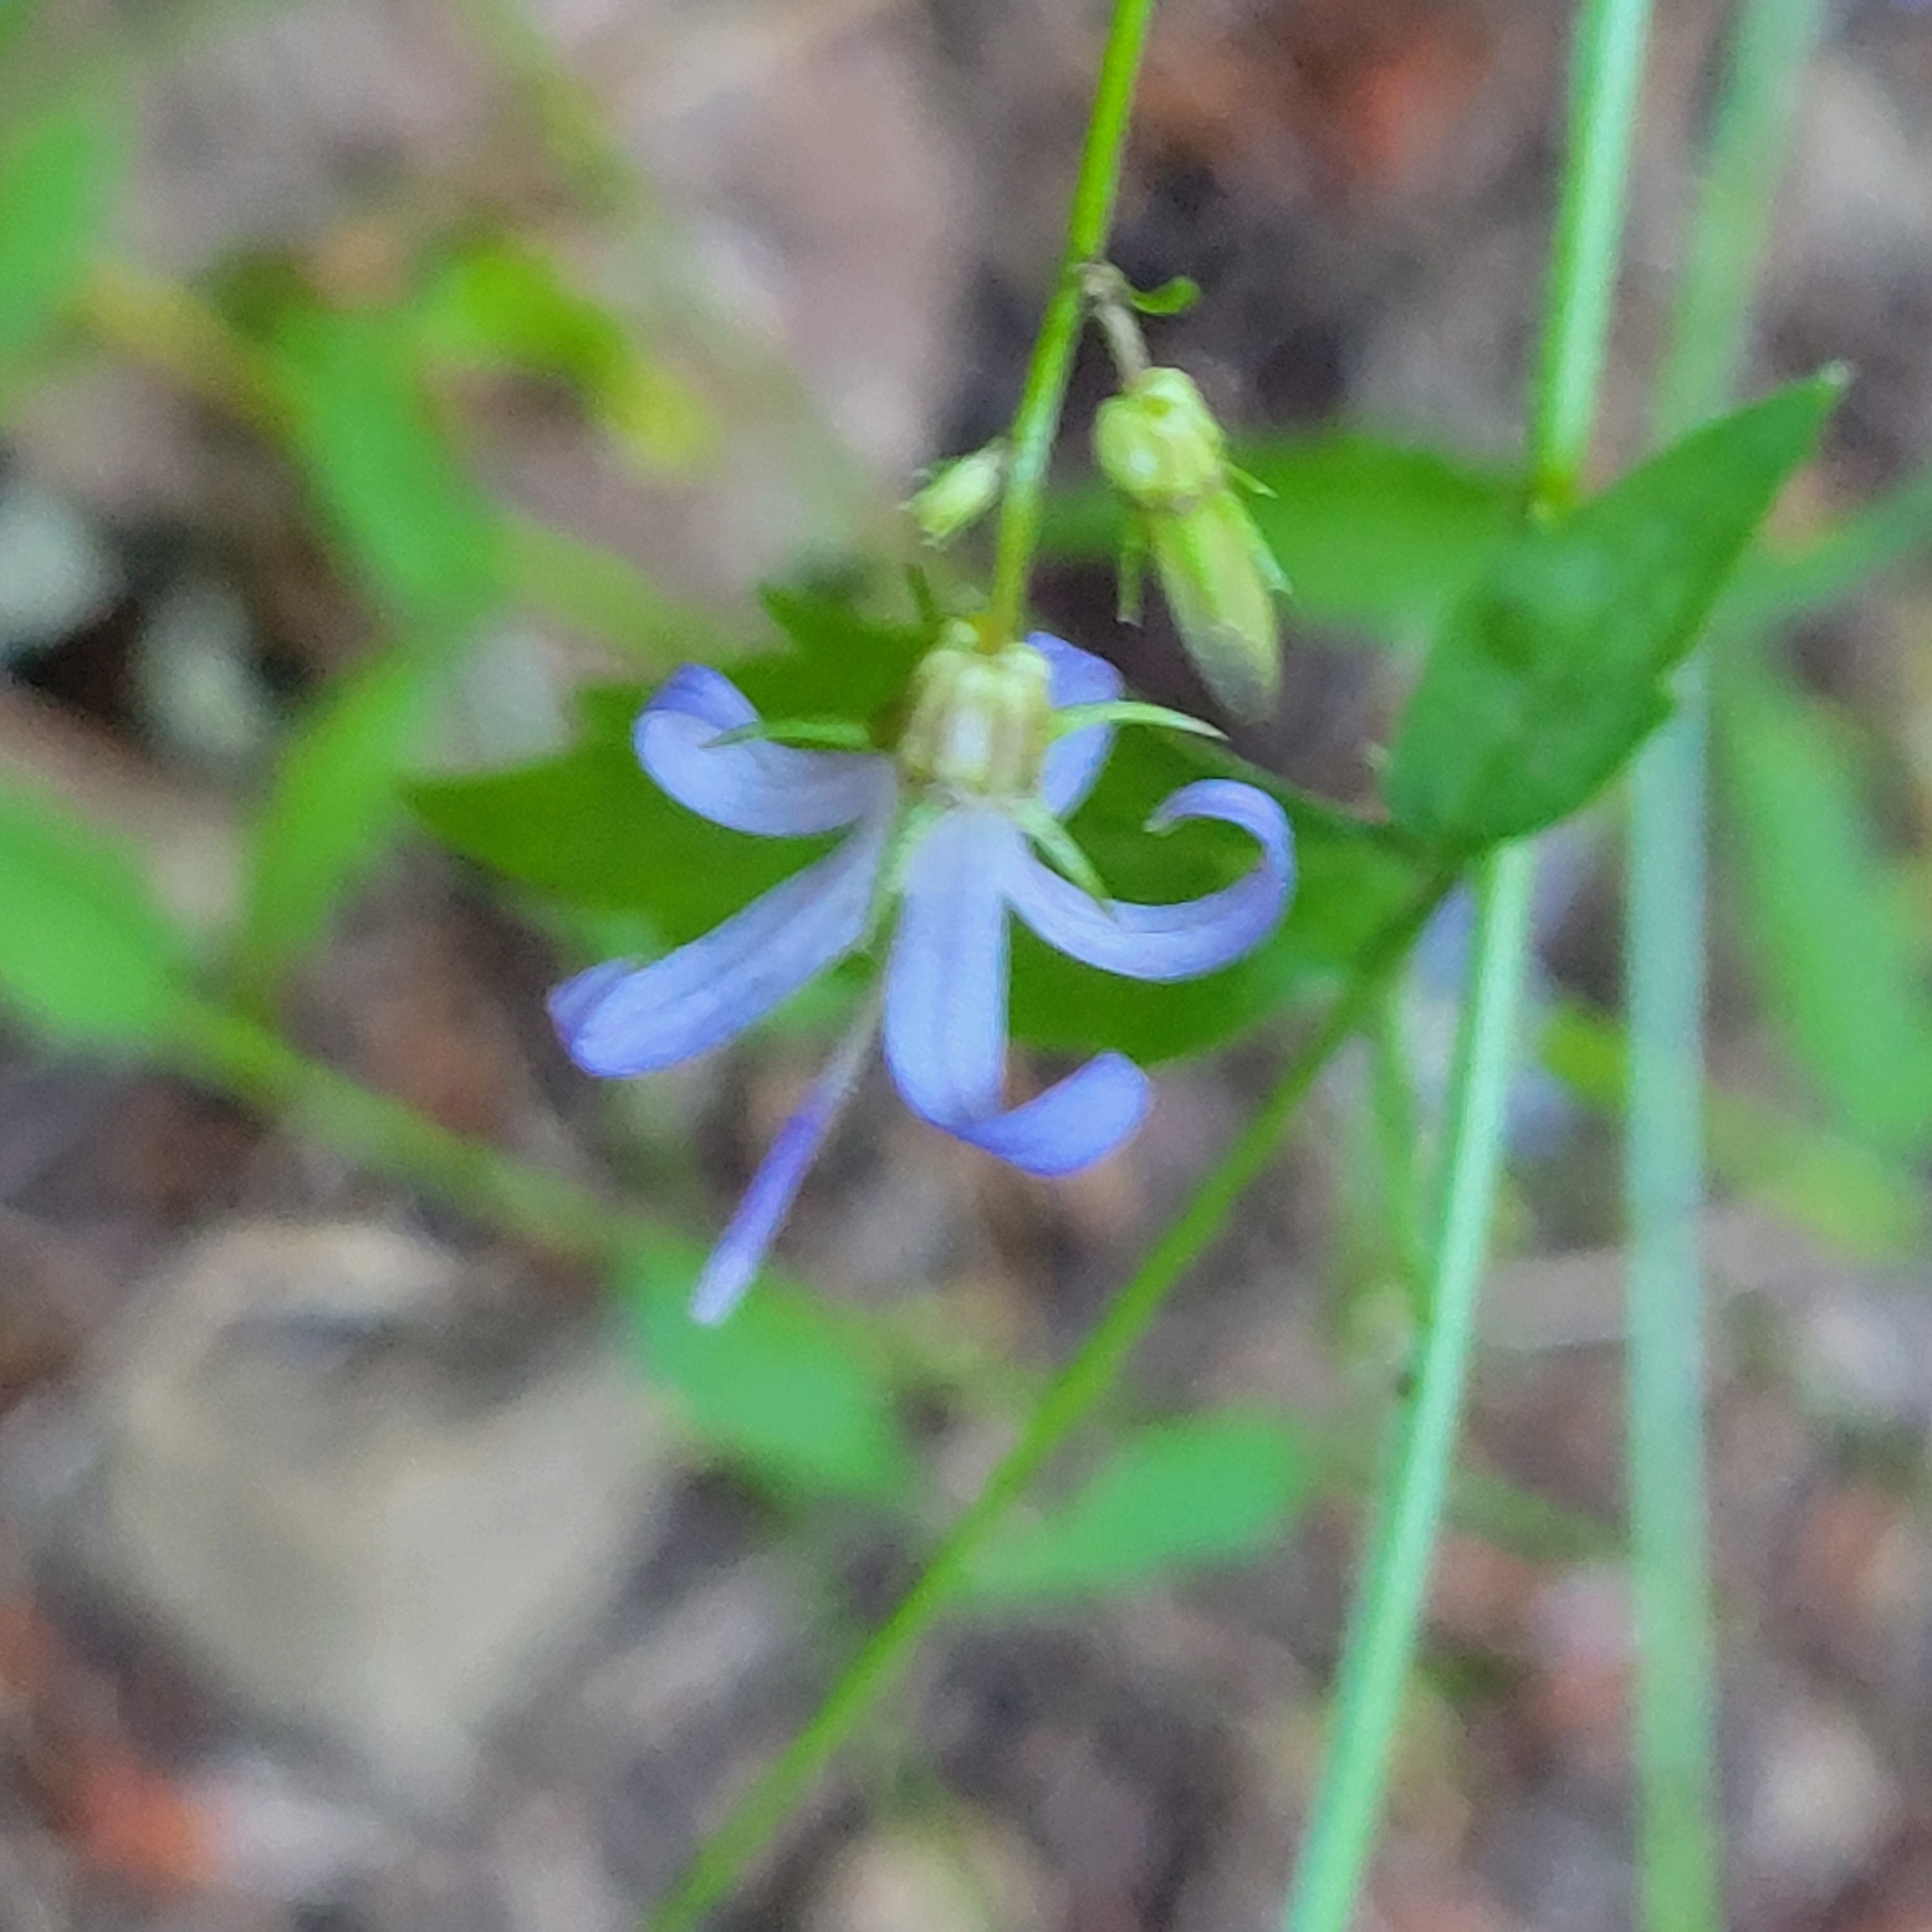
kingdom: Plantae
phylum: Tracheophyta
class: Magnoliopsida
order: Asterales
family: Campanulaceae
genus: Smithiastrum
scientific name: Smithiastrum prenanthoides
